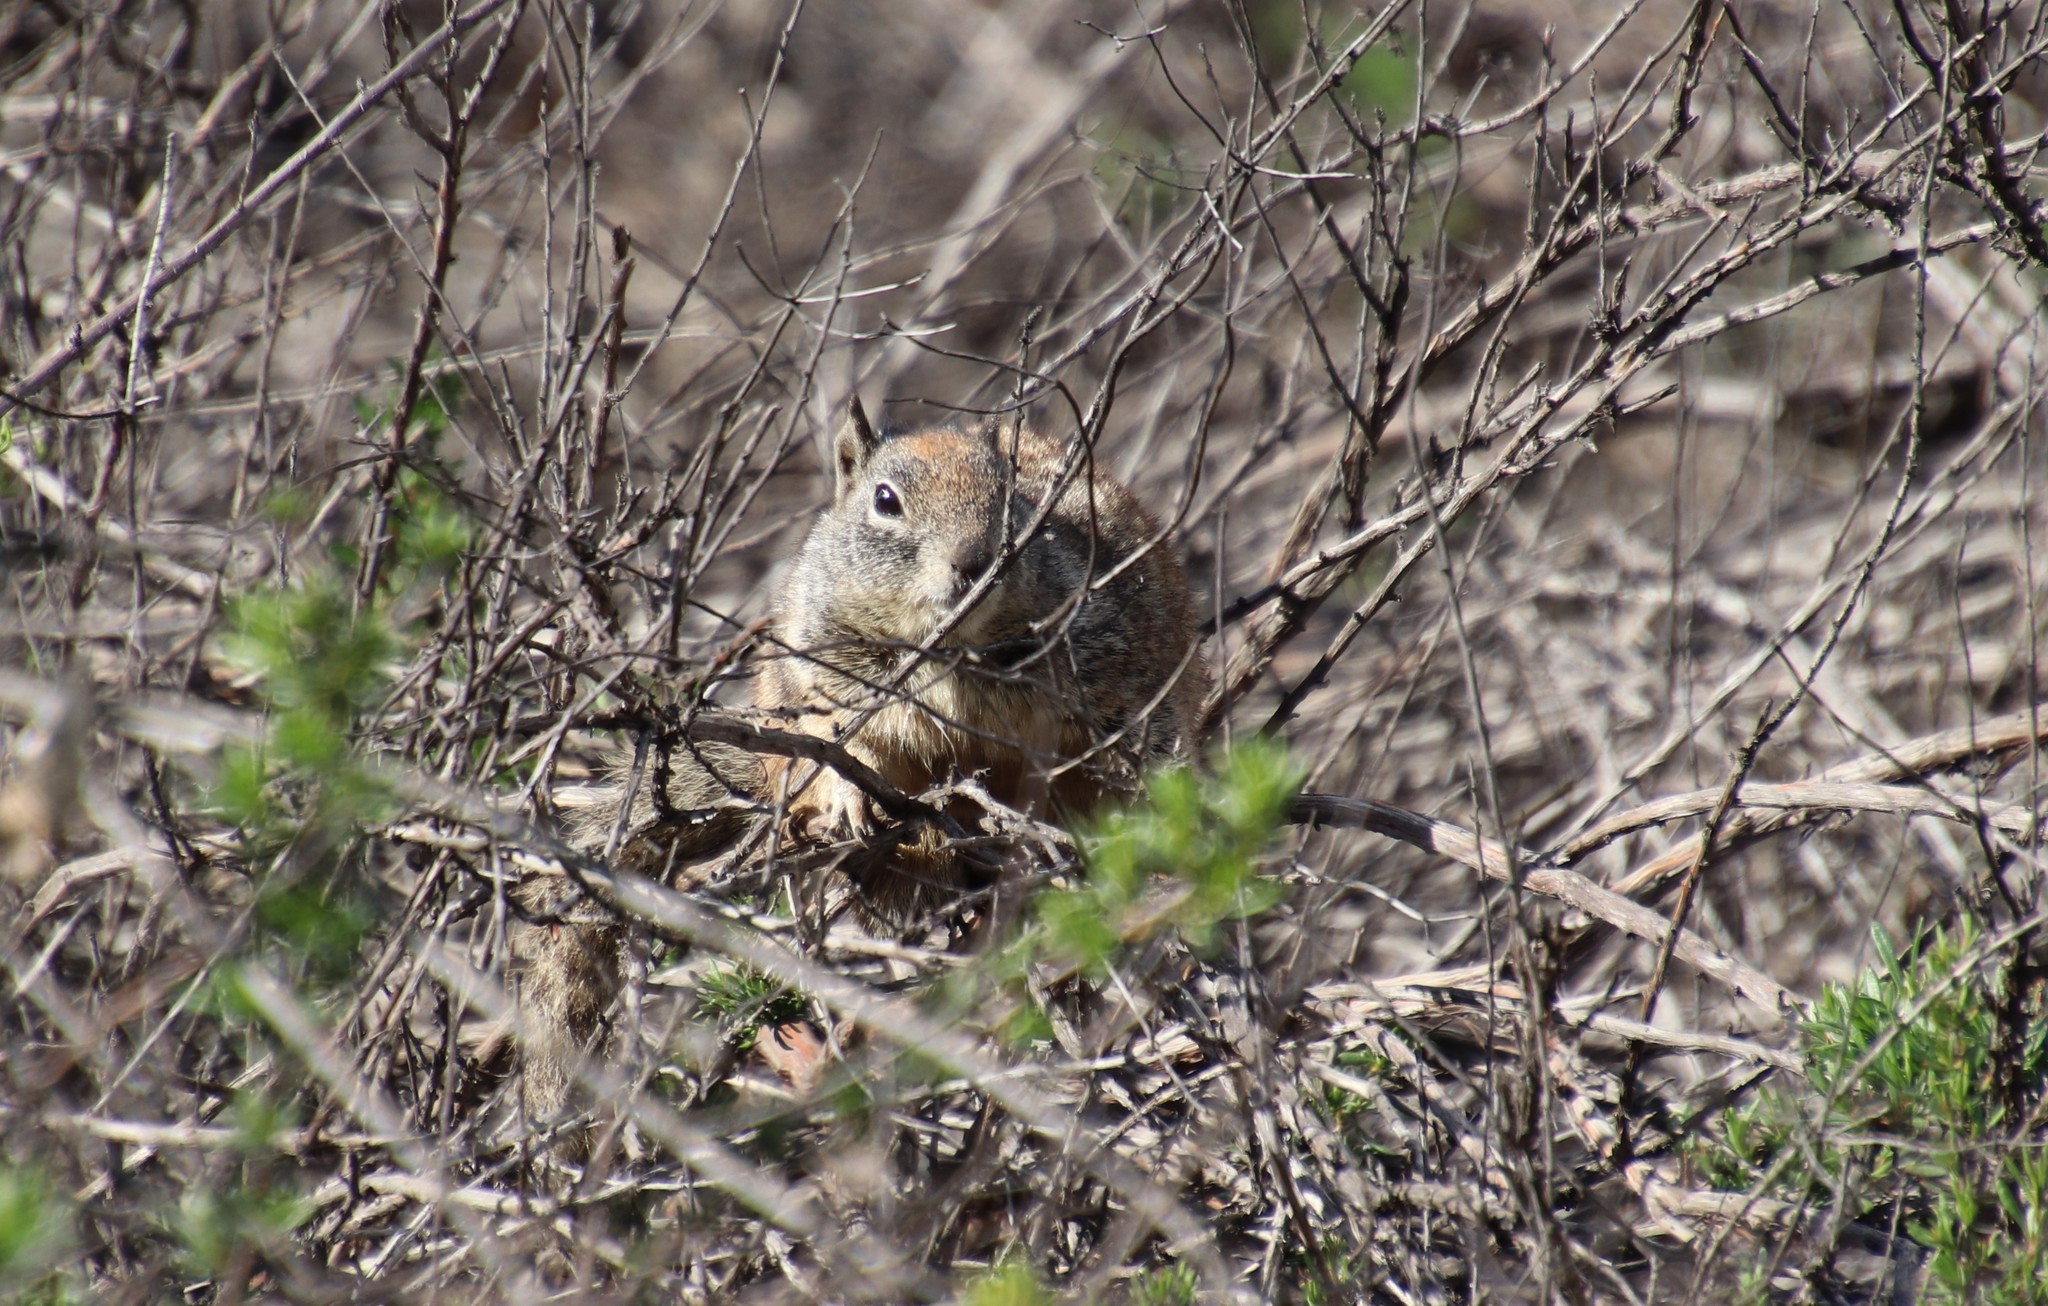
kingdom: Animalia
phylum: Chordata
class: Mammalia
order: Rodentia
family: Sciuridae
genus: Otospermophilus
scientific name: Otospermophilus beecheyi
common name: California ground squirrel
